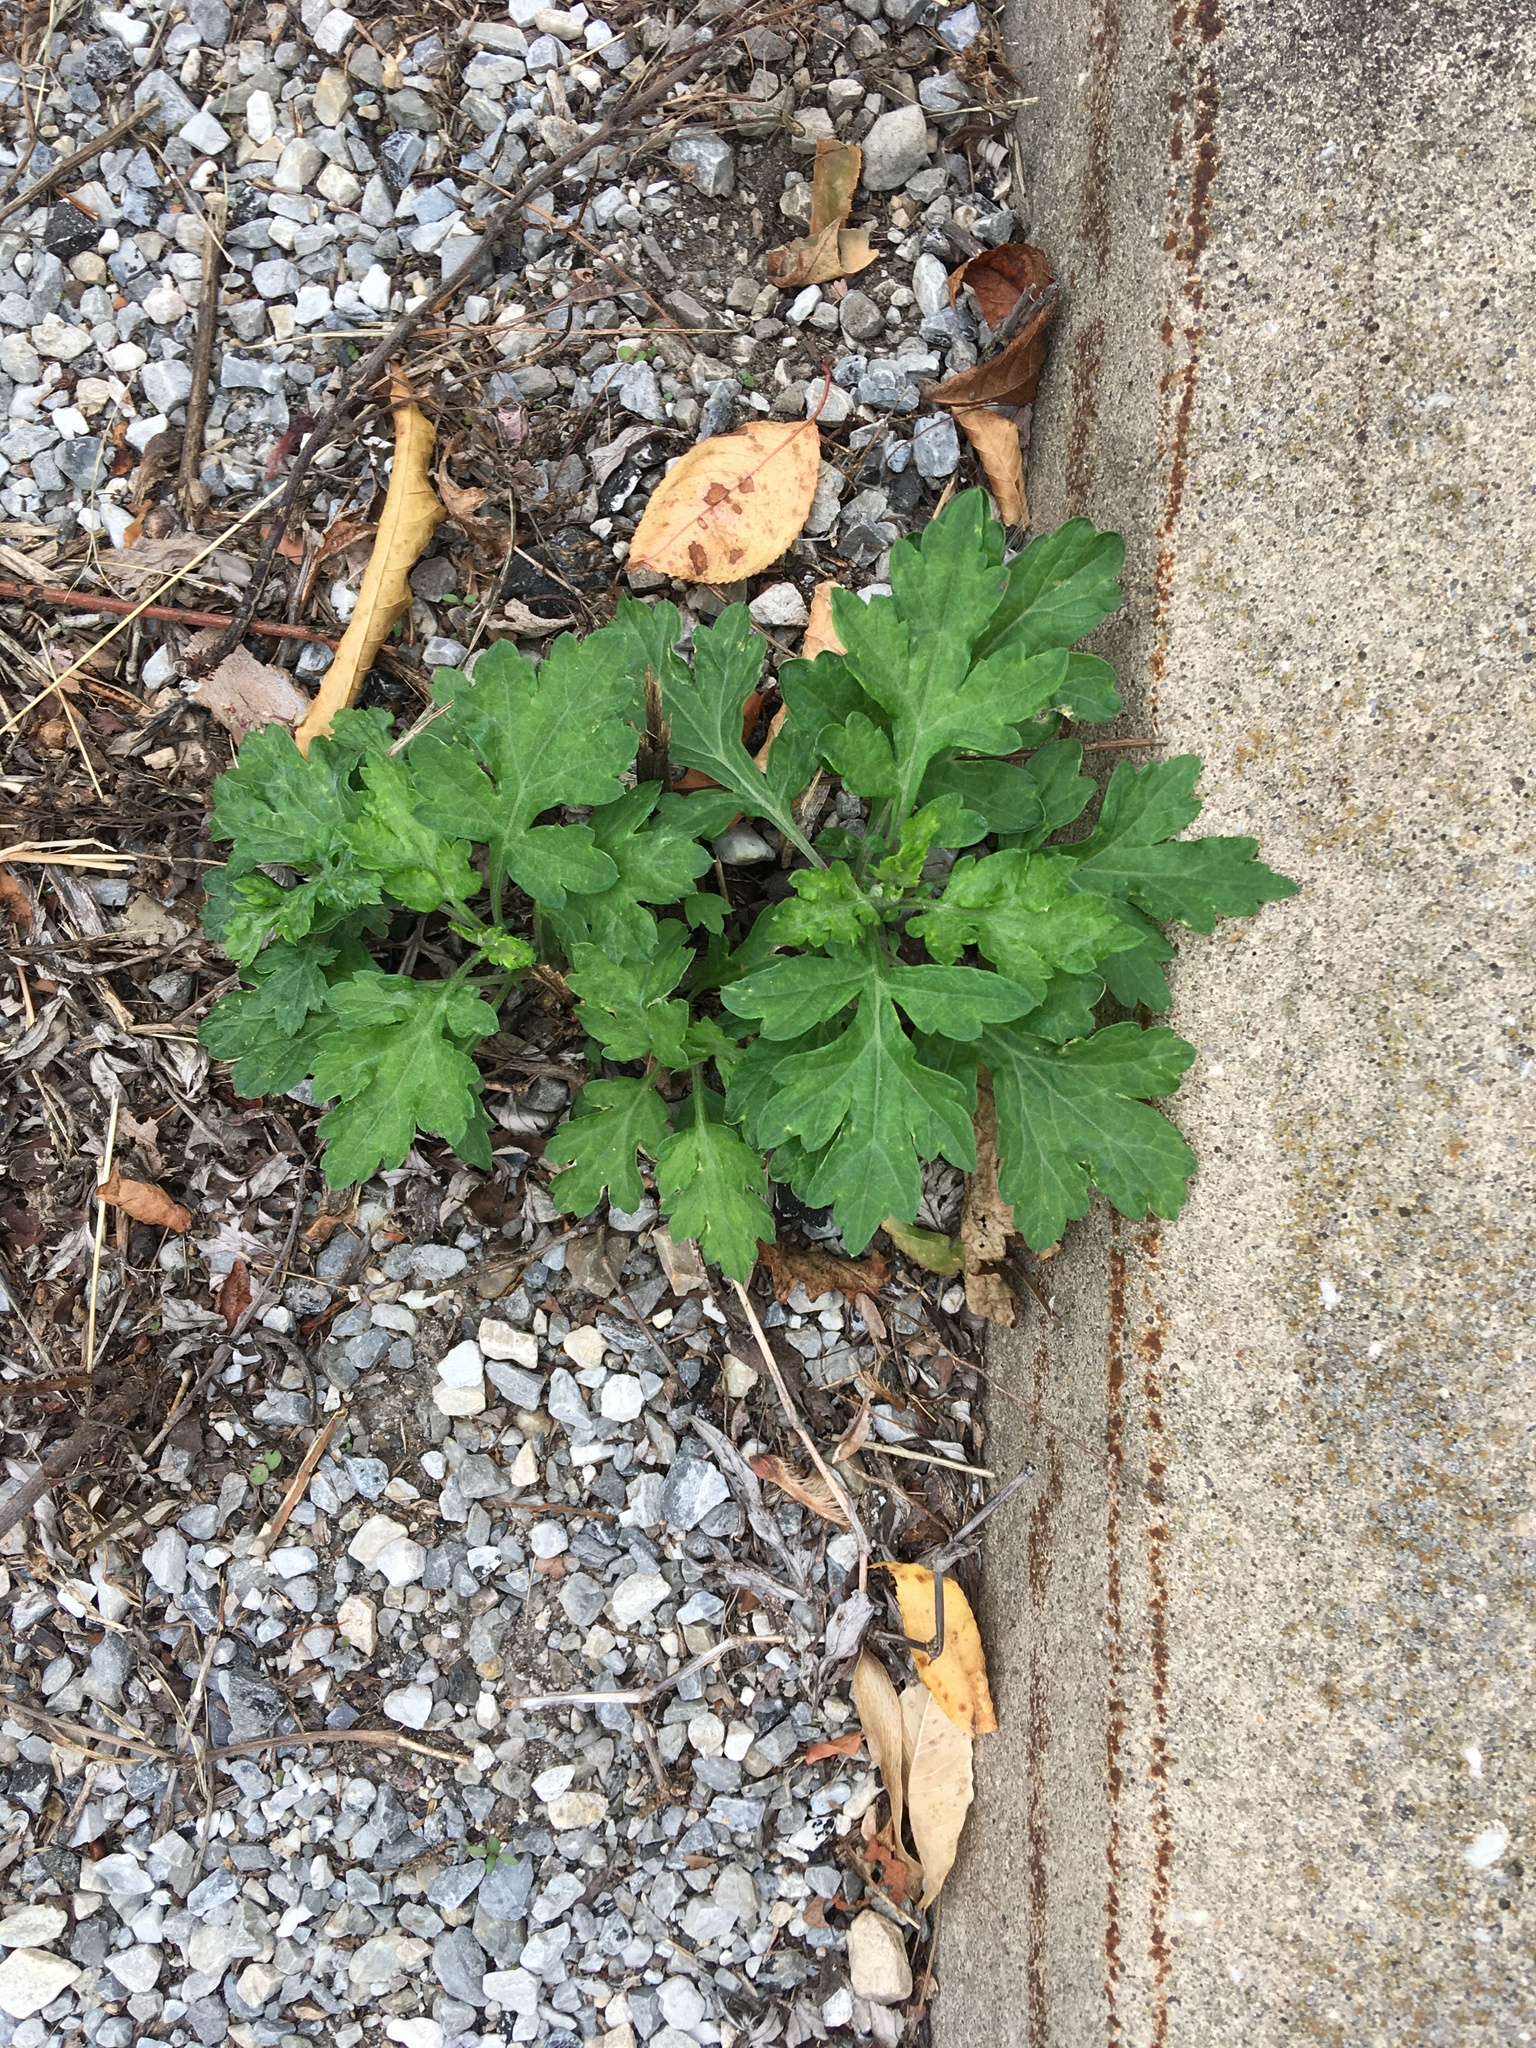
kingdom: Plantae
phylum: Tracheophyta
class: Magnoliopsida
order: Asterales
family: Asteraceae
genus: Artemisia
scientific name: Artemisia vulgaris
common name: Mugwort
